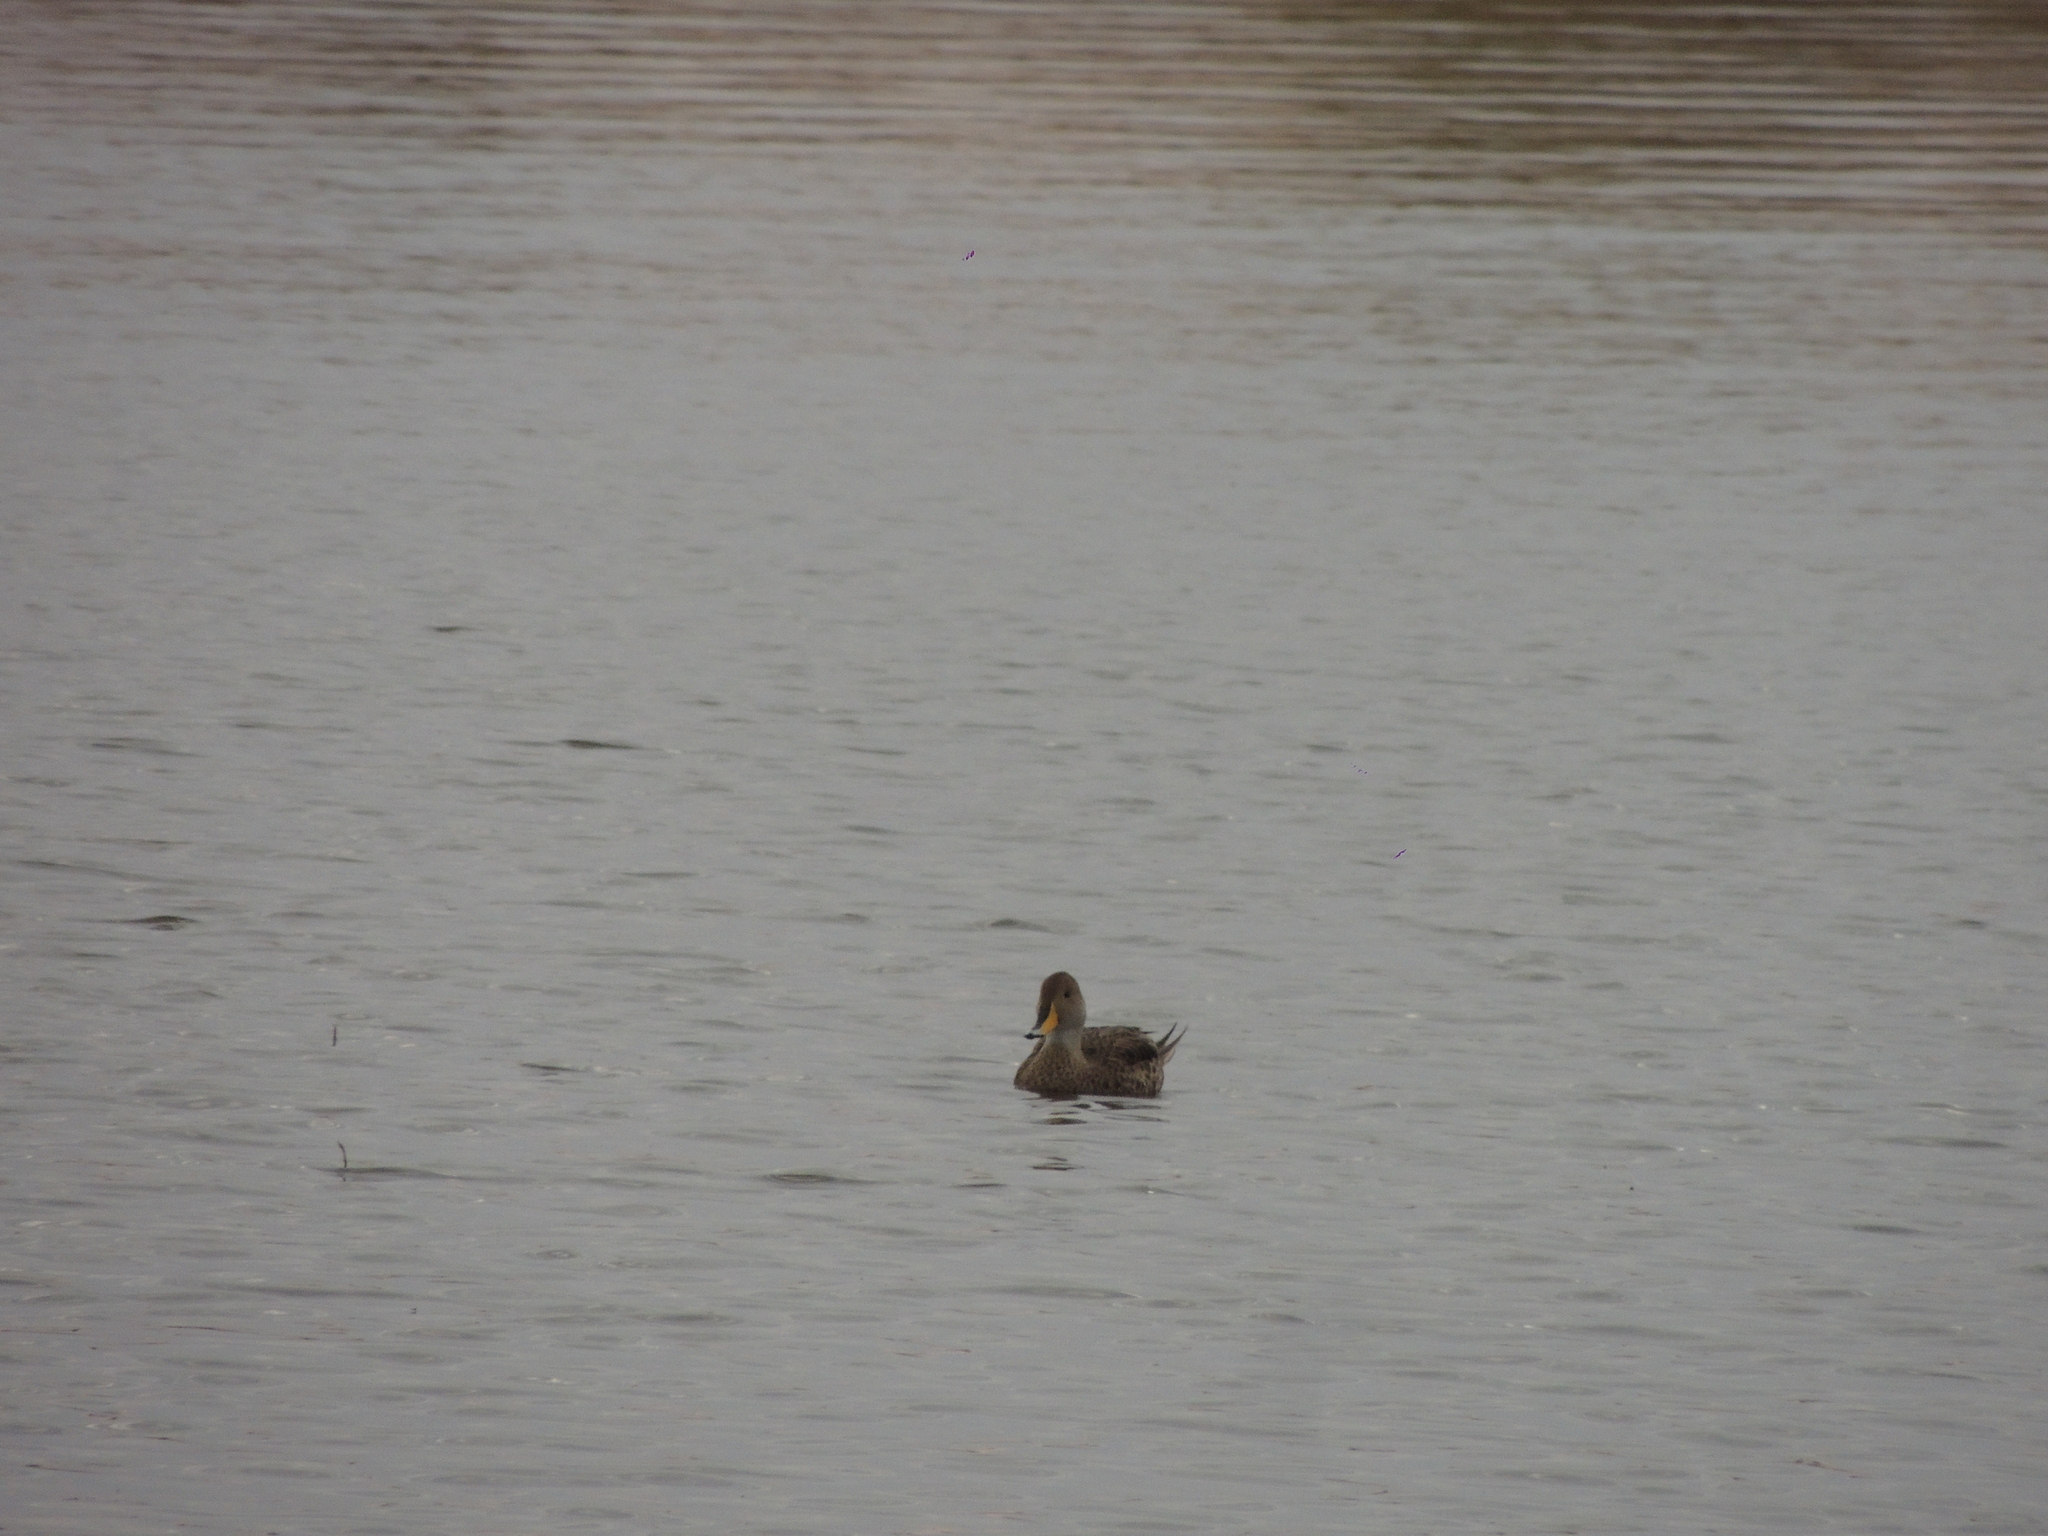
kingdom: Animalia
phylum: Chordata
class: Aves
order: Anseriformes
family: Anatidae
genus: Anas
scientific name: Anas georgica
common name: Yellow-billed pintail
